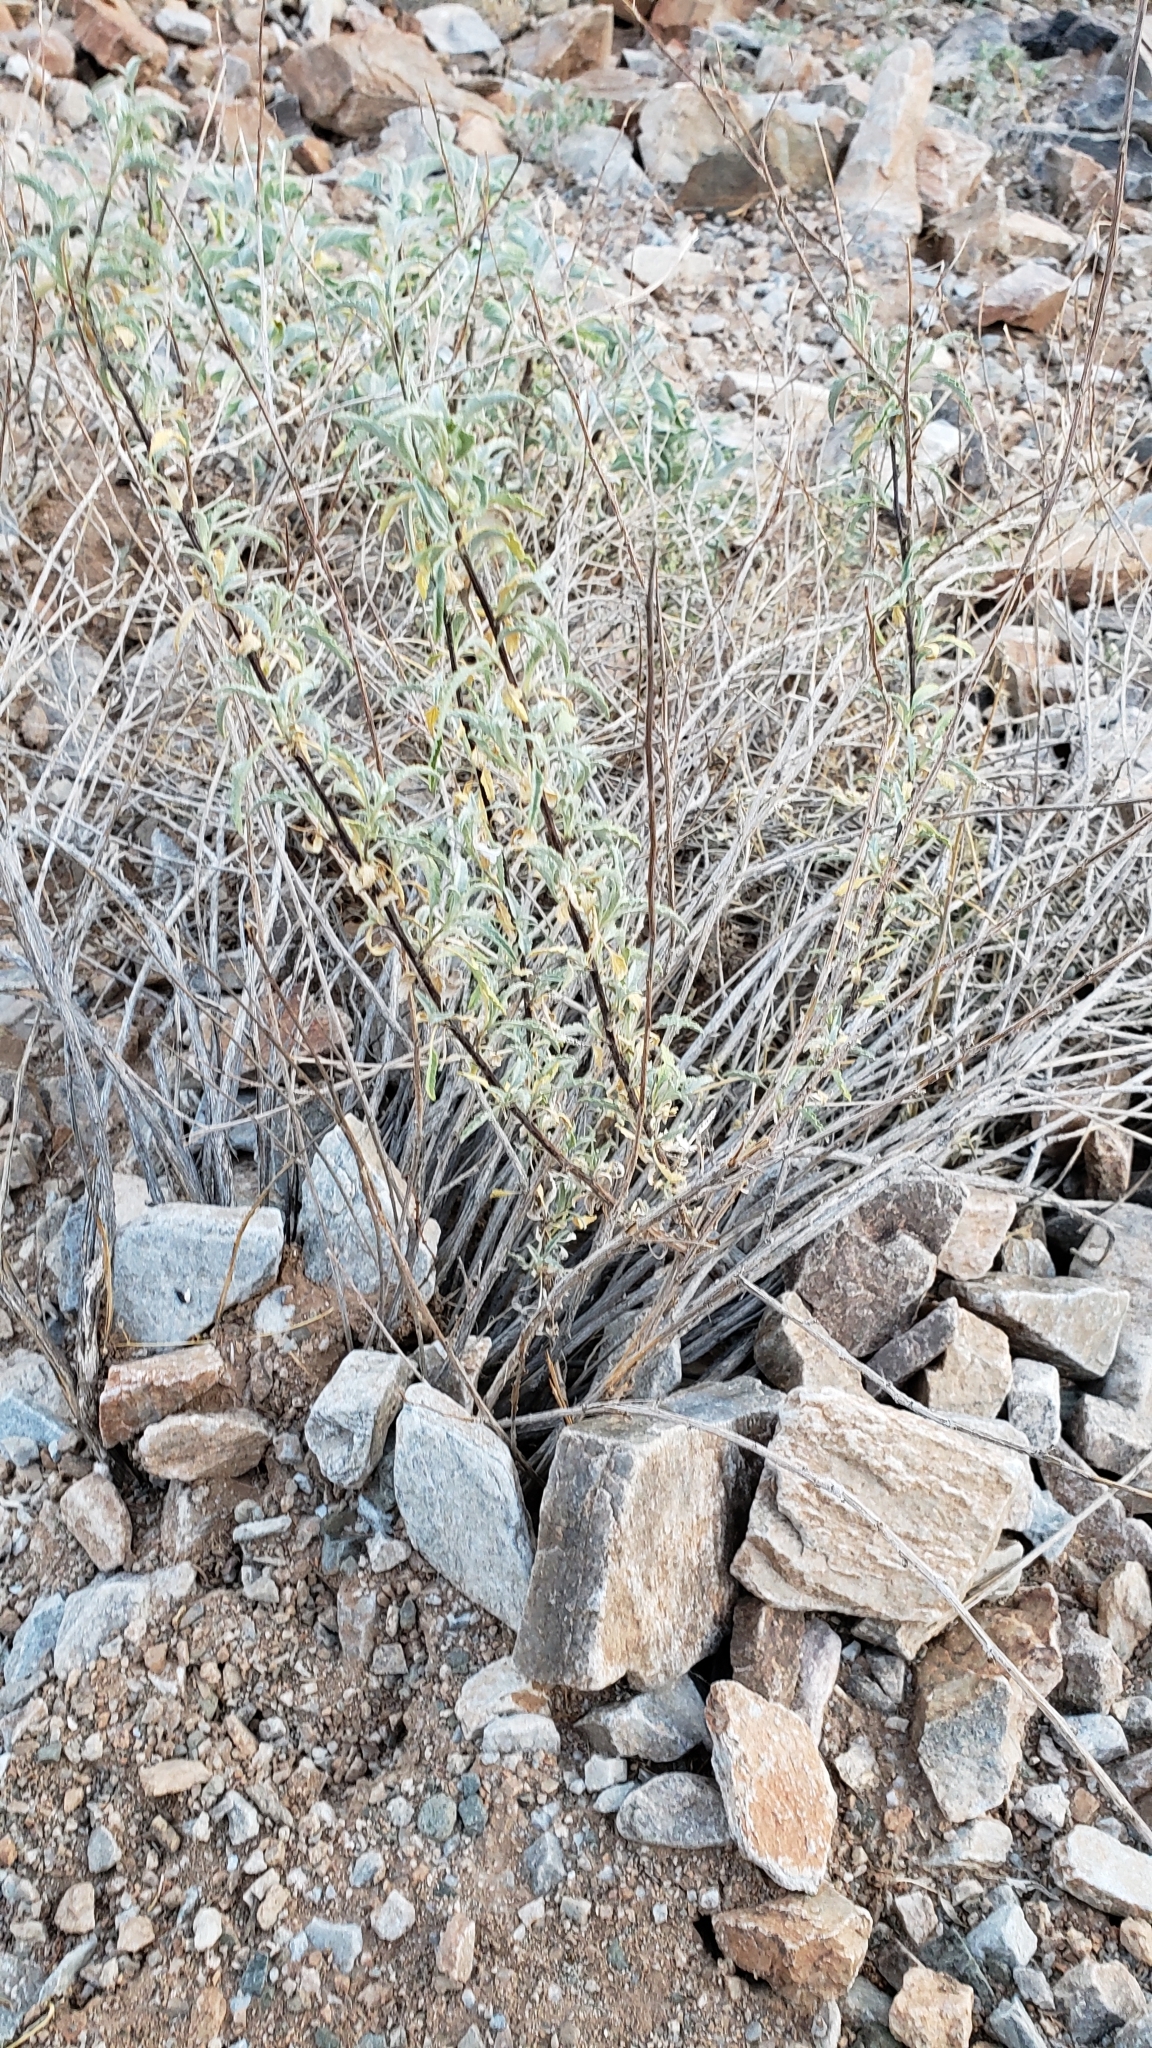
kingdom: Plantae
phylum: Tracheophyta
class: Magnoliopsida
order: Asterales
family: Asteraceae
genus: Ambrosia
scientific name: Ambrosia deltoidea
